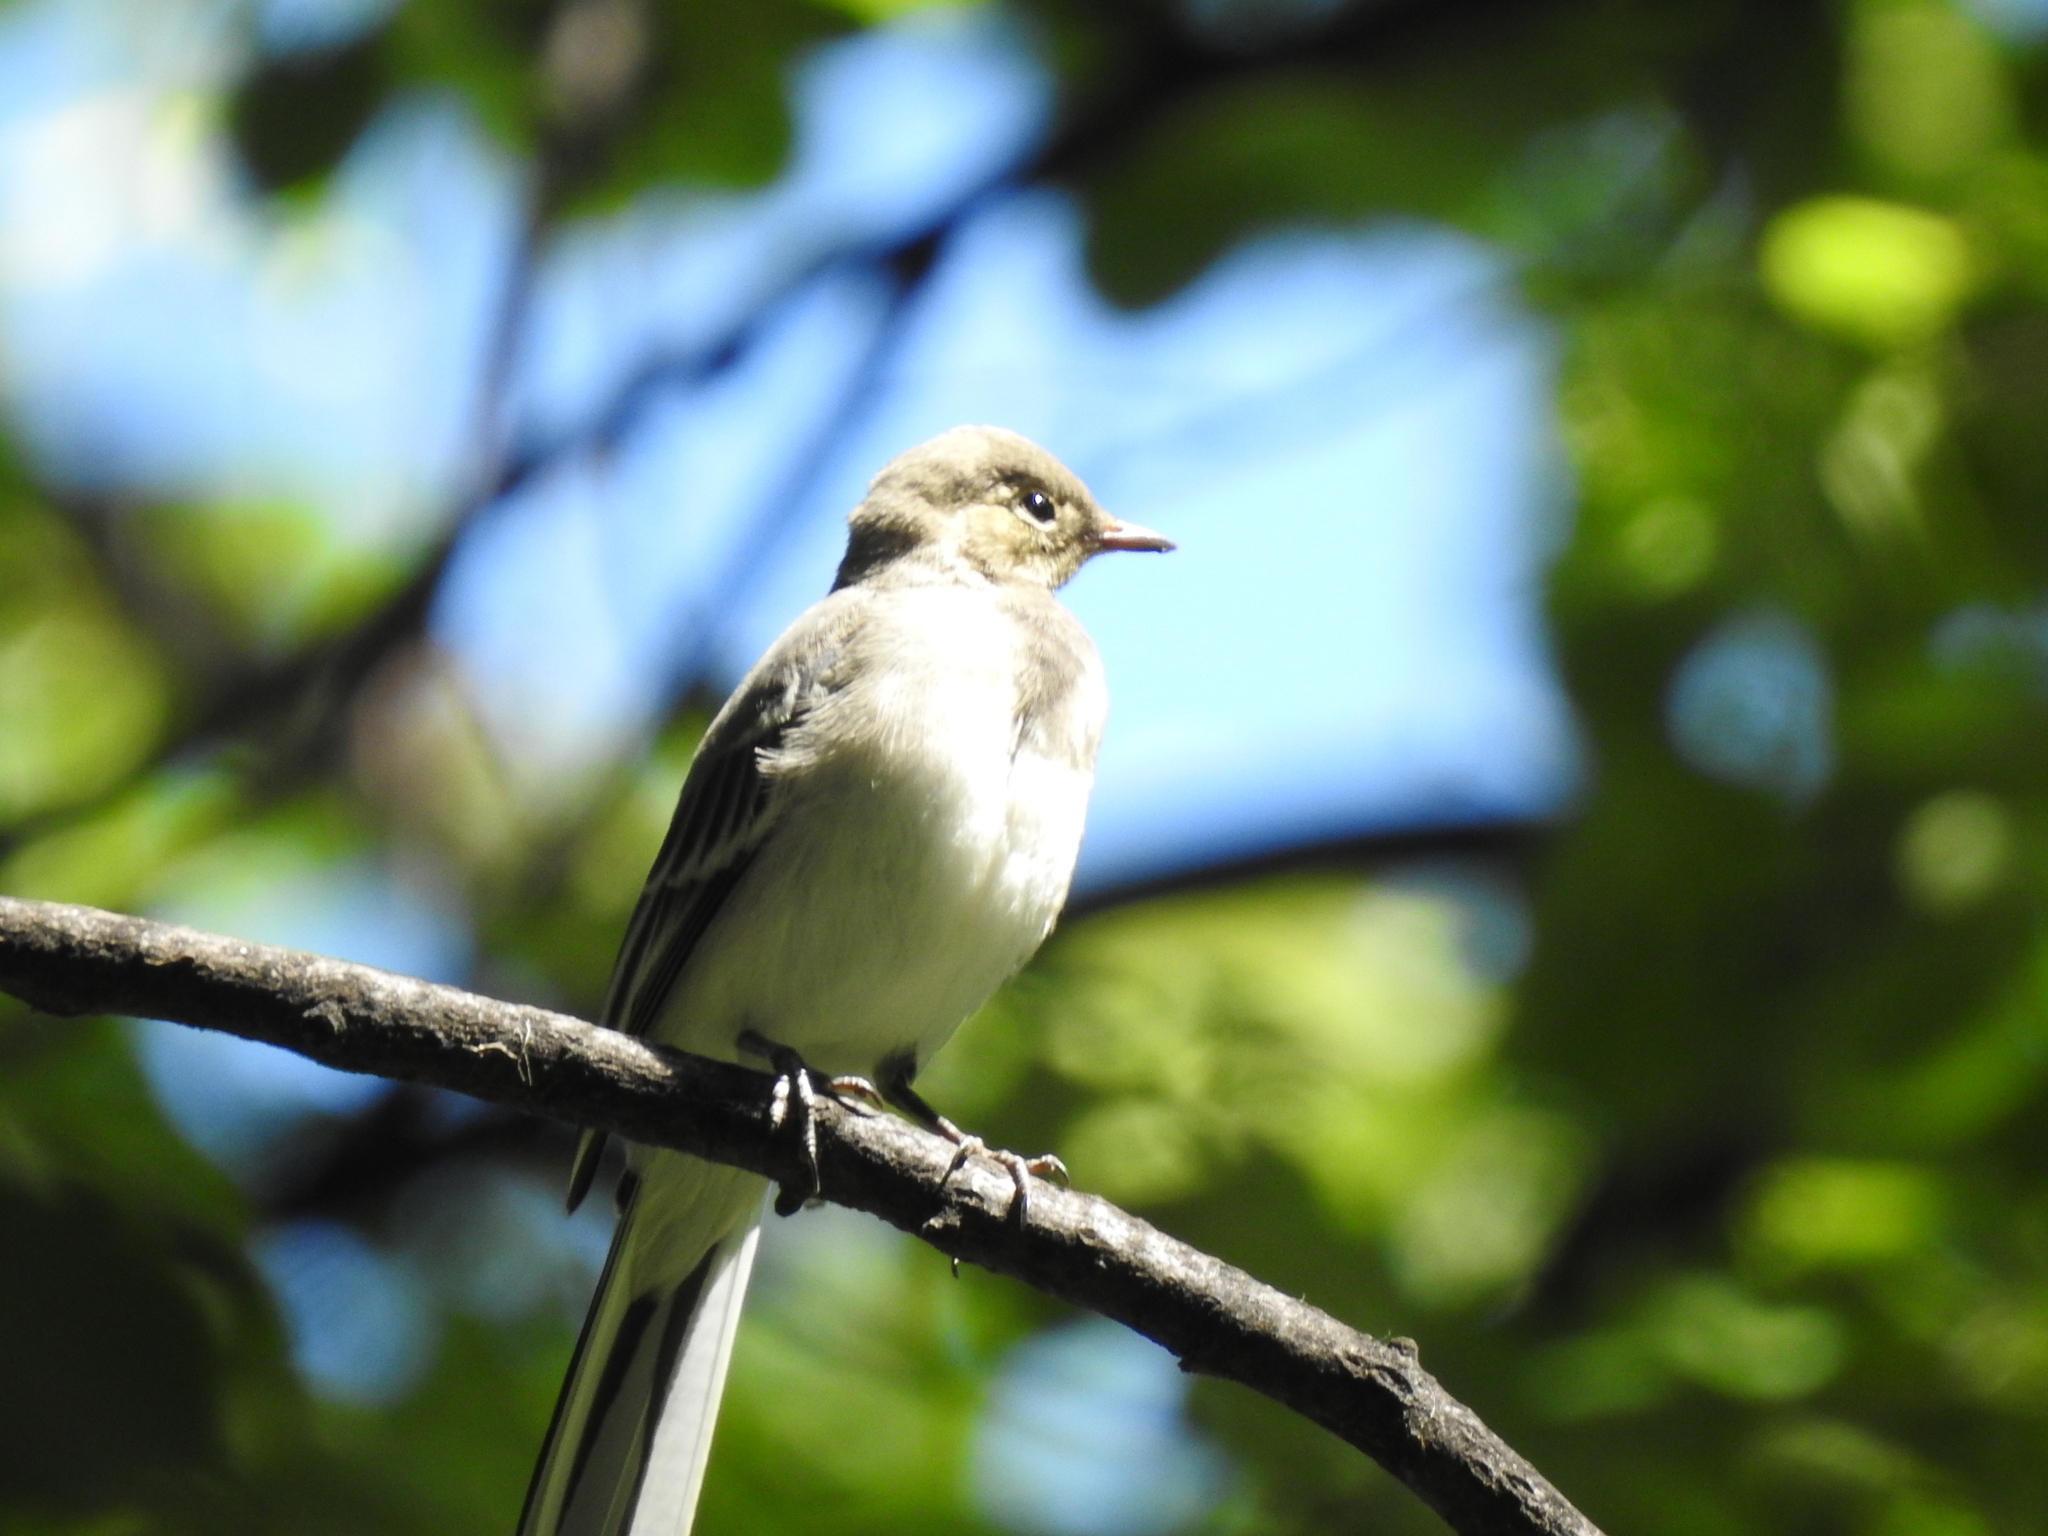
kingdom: Animalia
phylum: Chordata
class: Aves
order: Passeriformes
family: Motacillidae
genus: Motacilla
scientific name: Motacilla alba
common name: White wagtail
